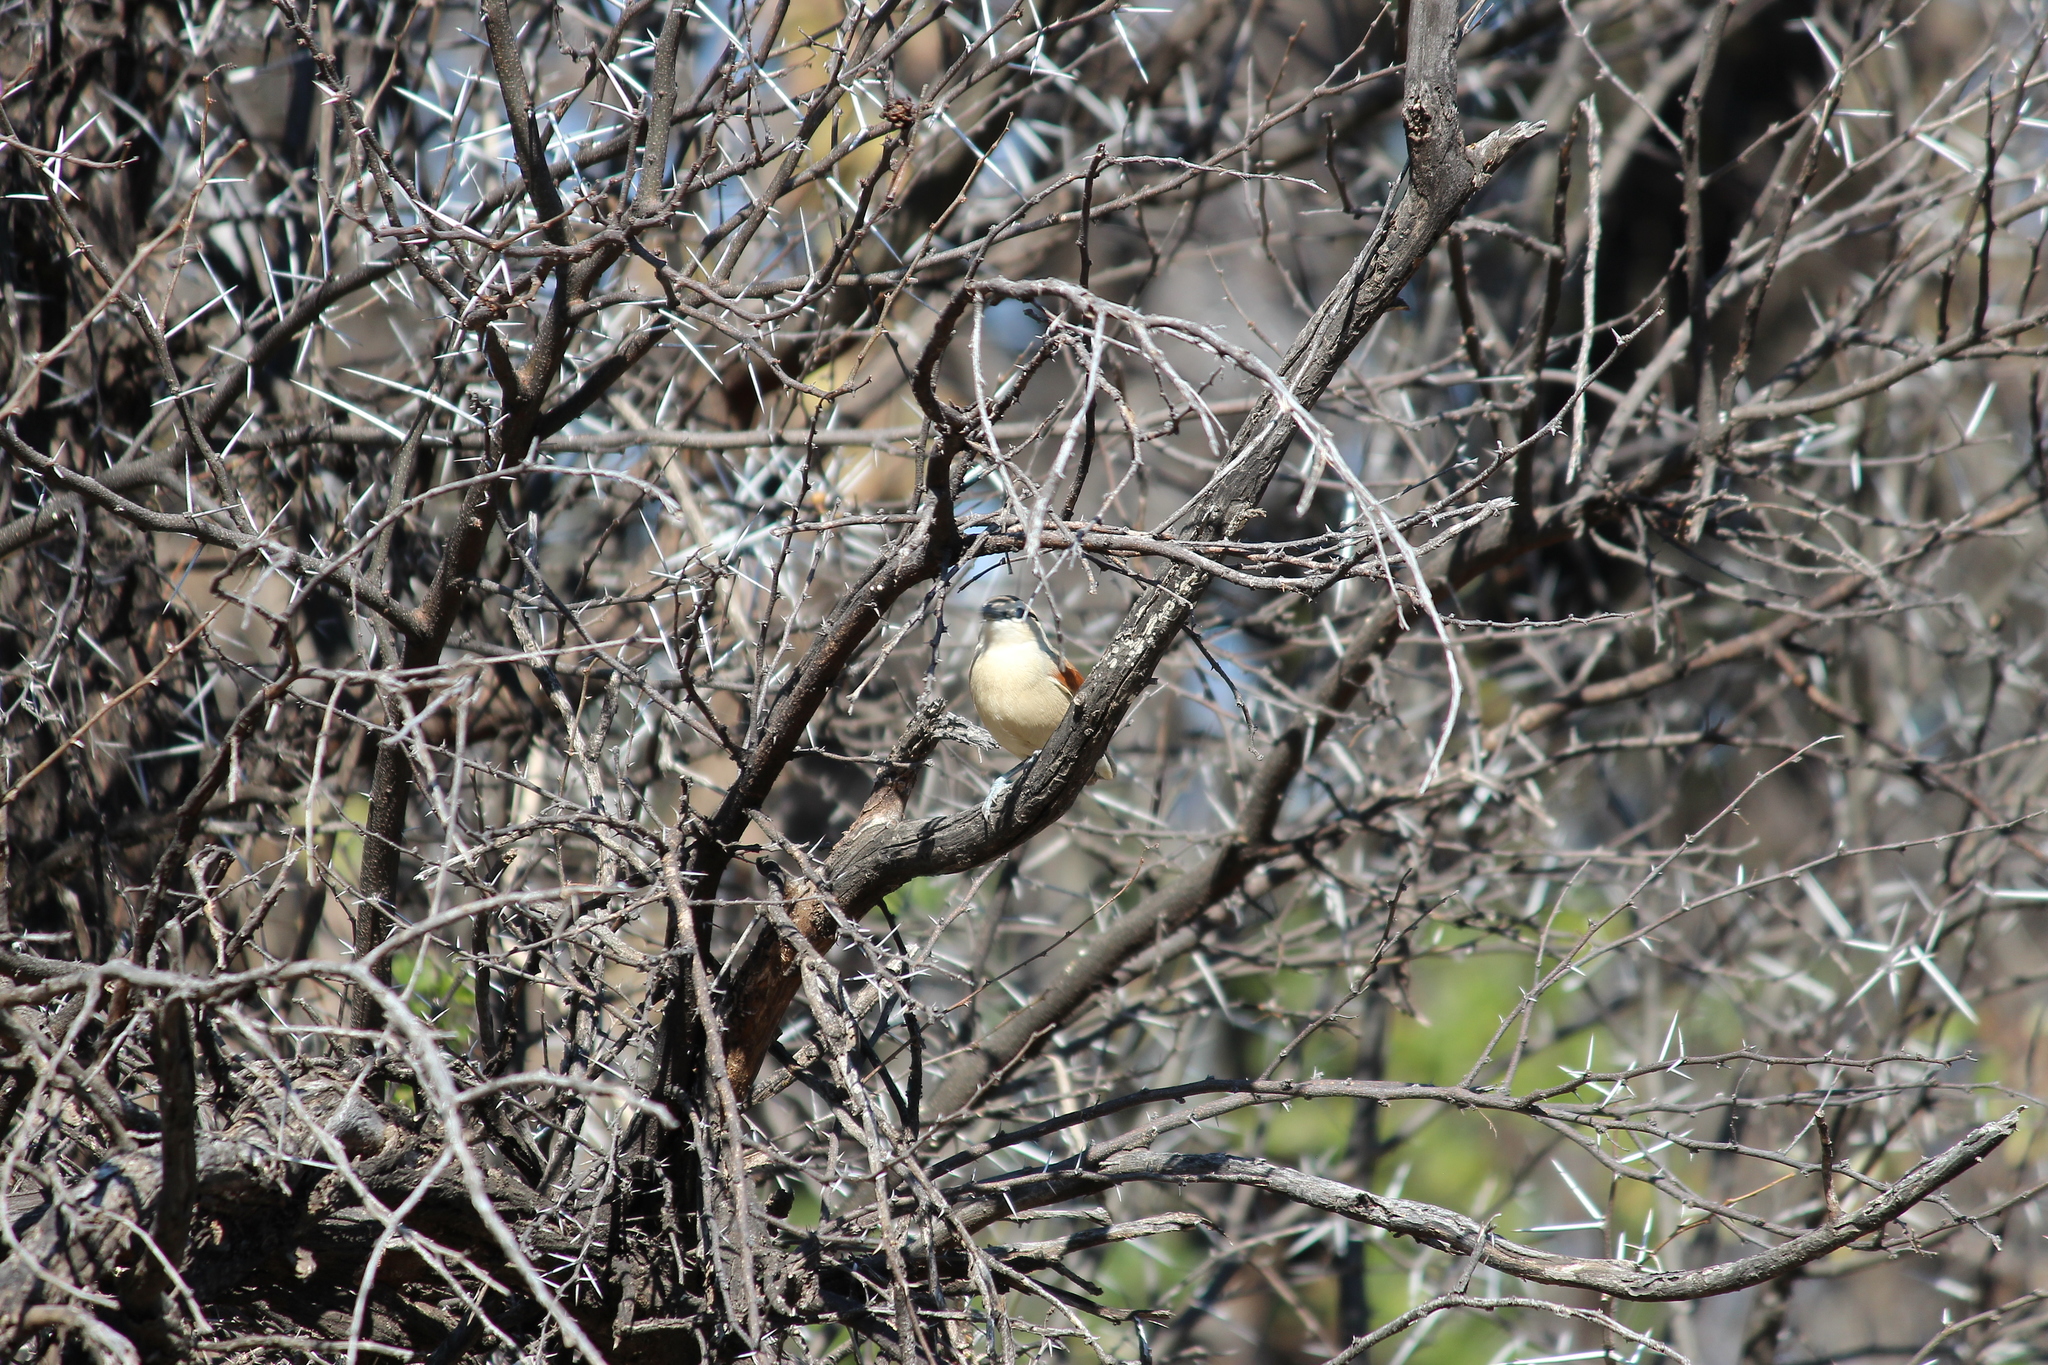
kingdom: Animalia
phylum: Chordata
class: Aves
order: Passeriformes
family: Malaconotidae
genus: Tchagra
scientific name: Tchagra australis
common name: Brown-crowned tchagra
